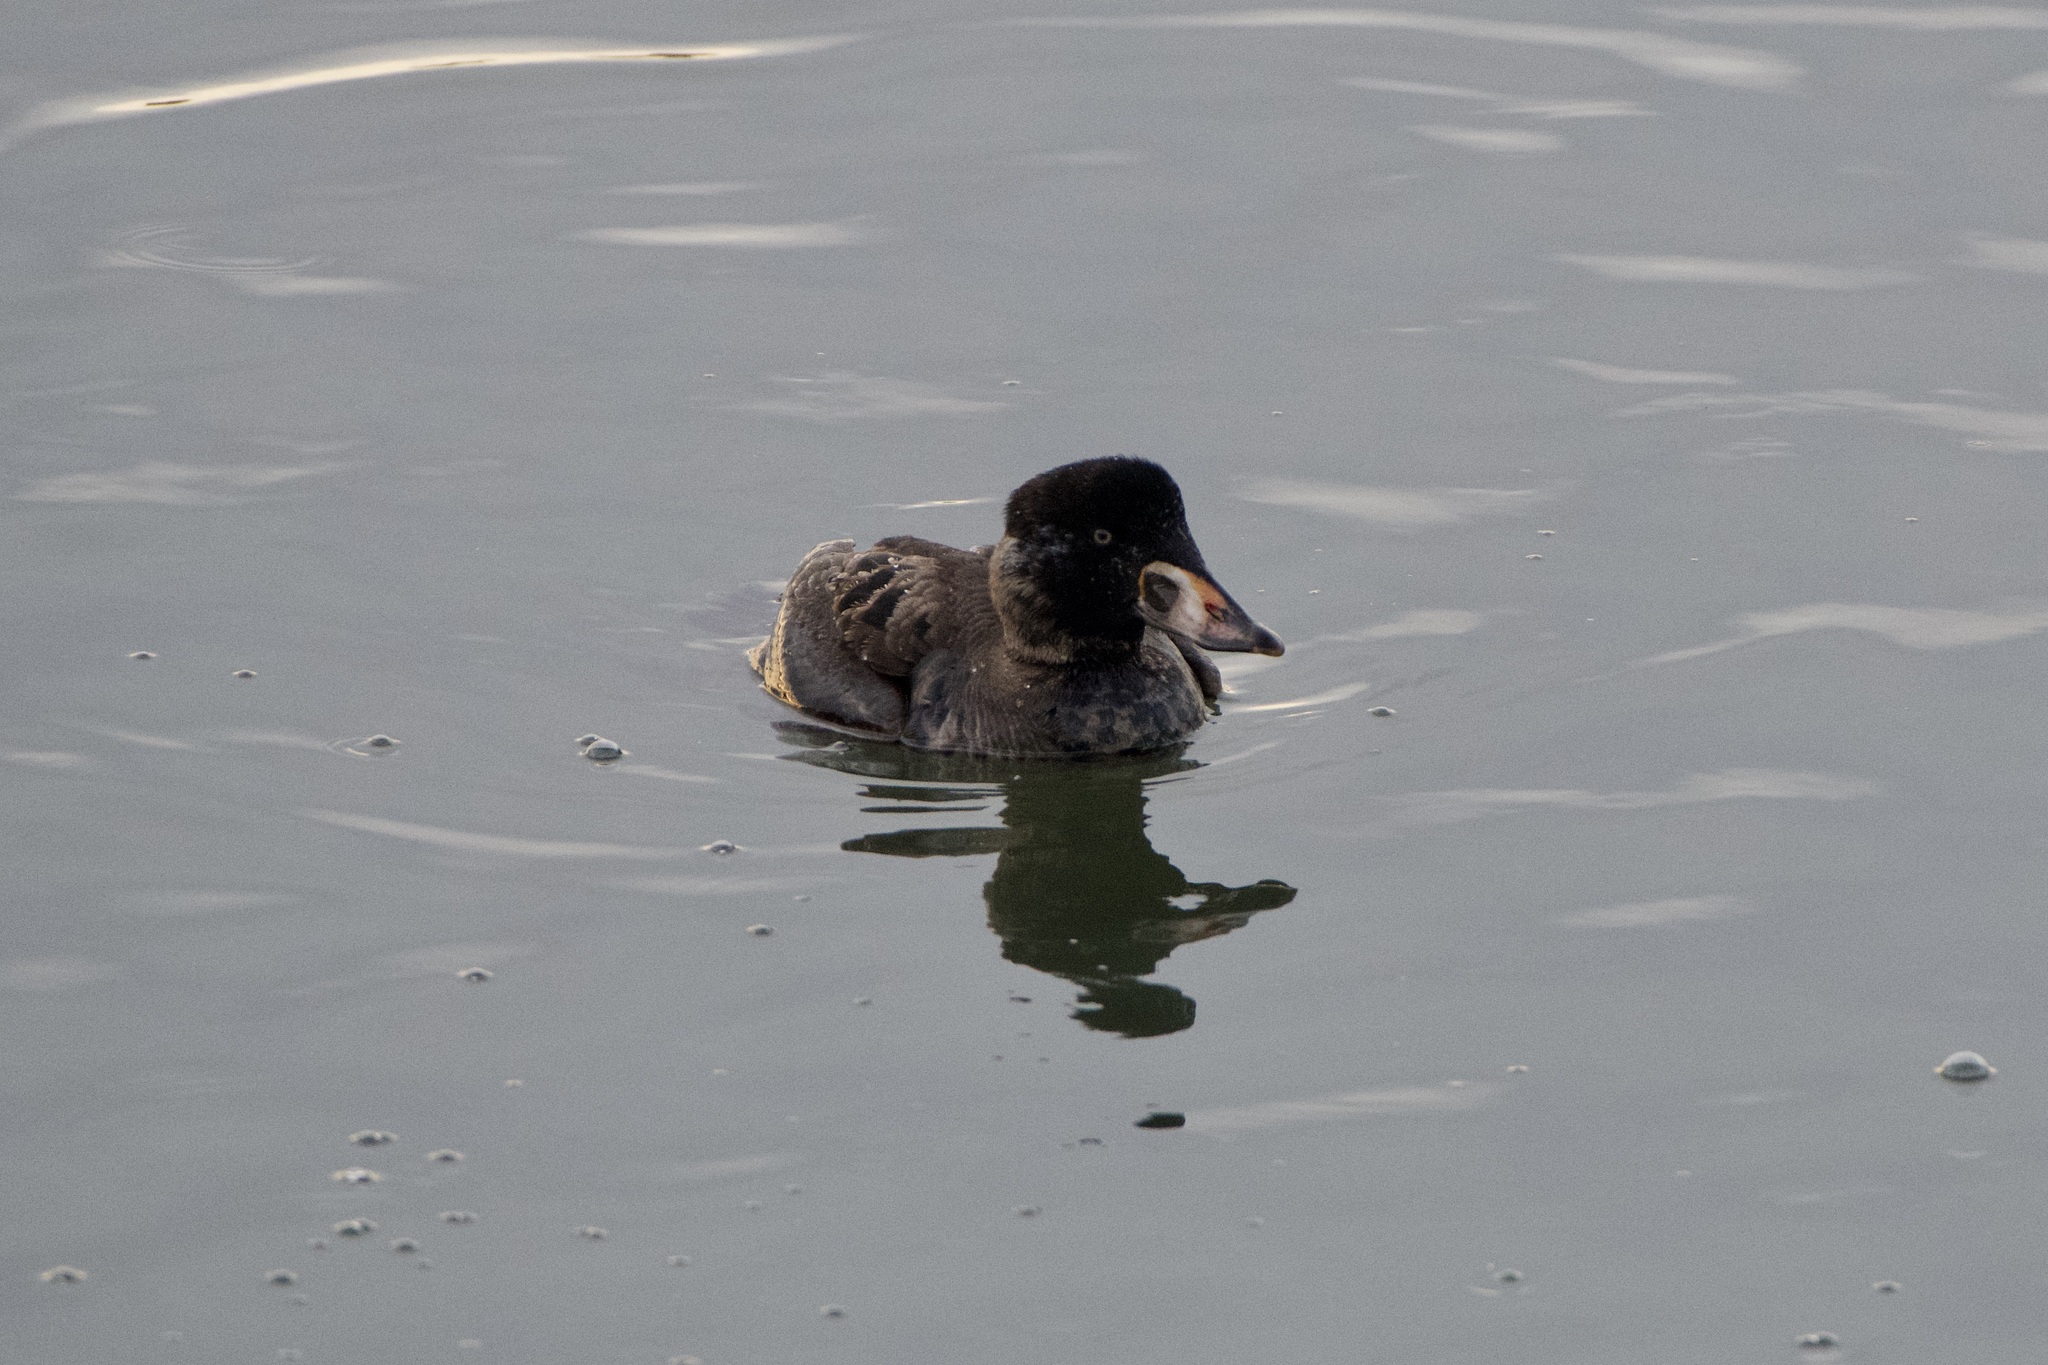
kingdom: Animalia
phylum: Chordata
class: Aves
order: Anseriformes
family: Anatidae
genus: Melanitta
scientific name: Melanitta perspicillata
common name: Surf scoter
